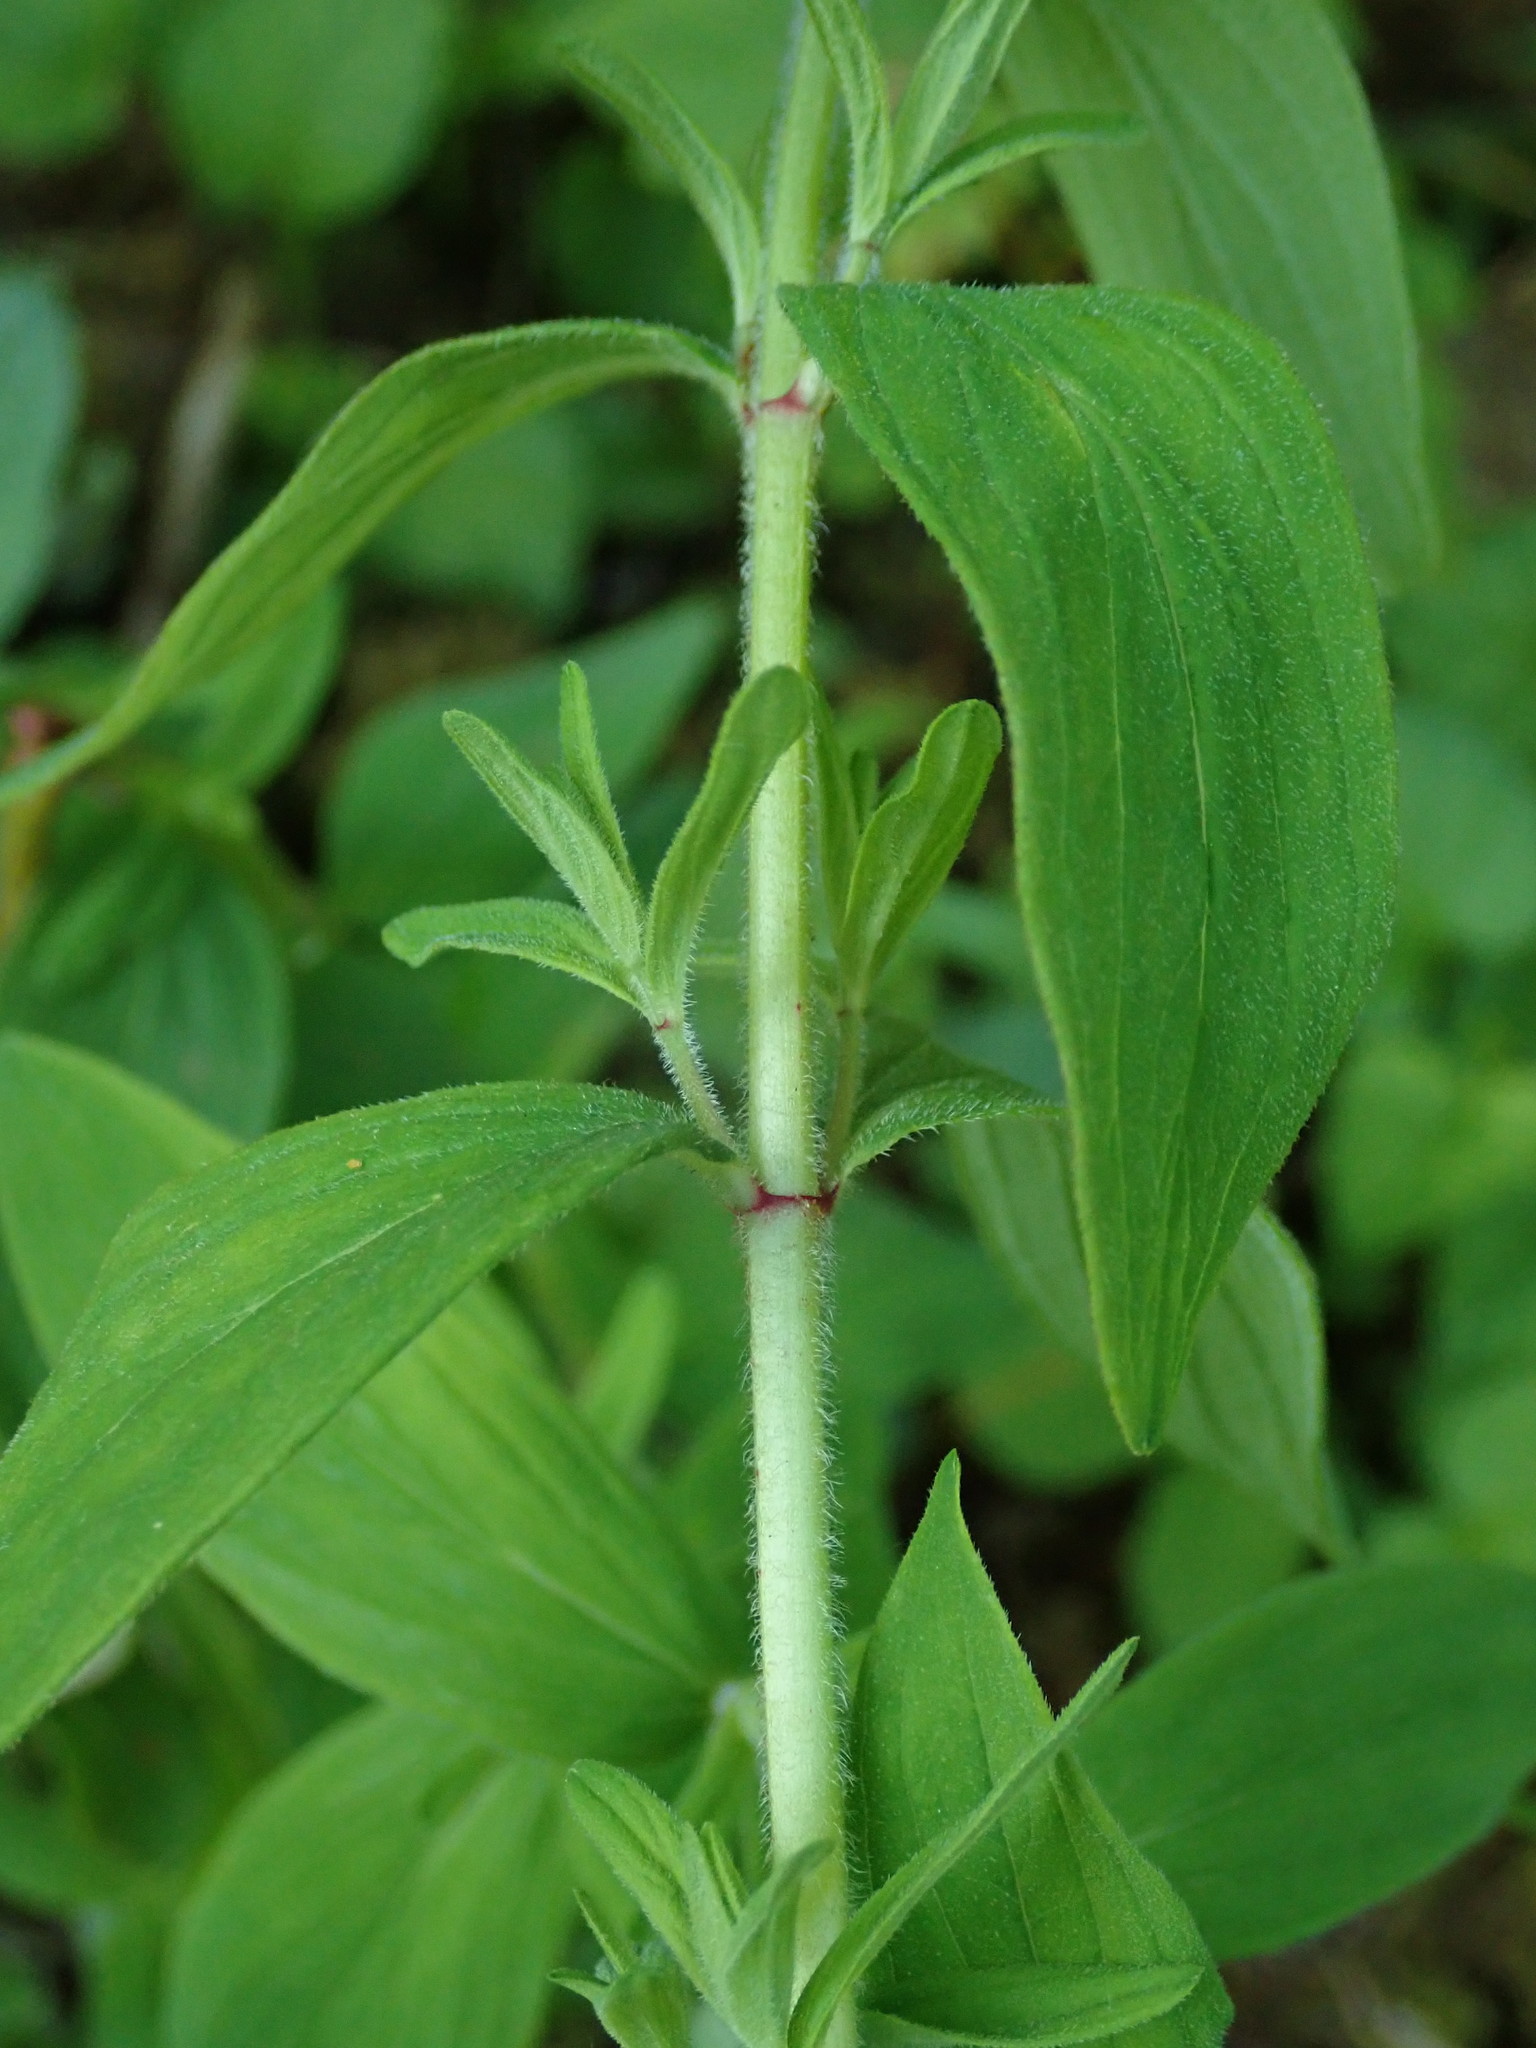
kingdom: Plantae
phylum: Tracheophyta
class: Magnoliopsida
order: Malpighiales
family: Hypericaceae
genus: Hypericum
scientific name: Hypericum hirsutum
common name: Hairy st. john's-wort
